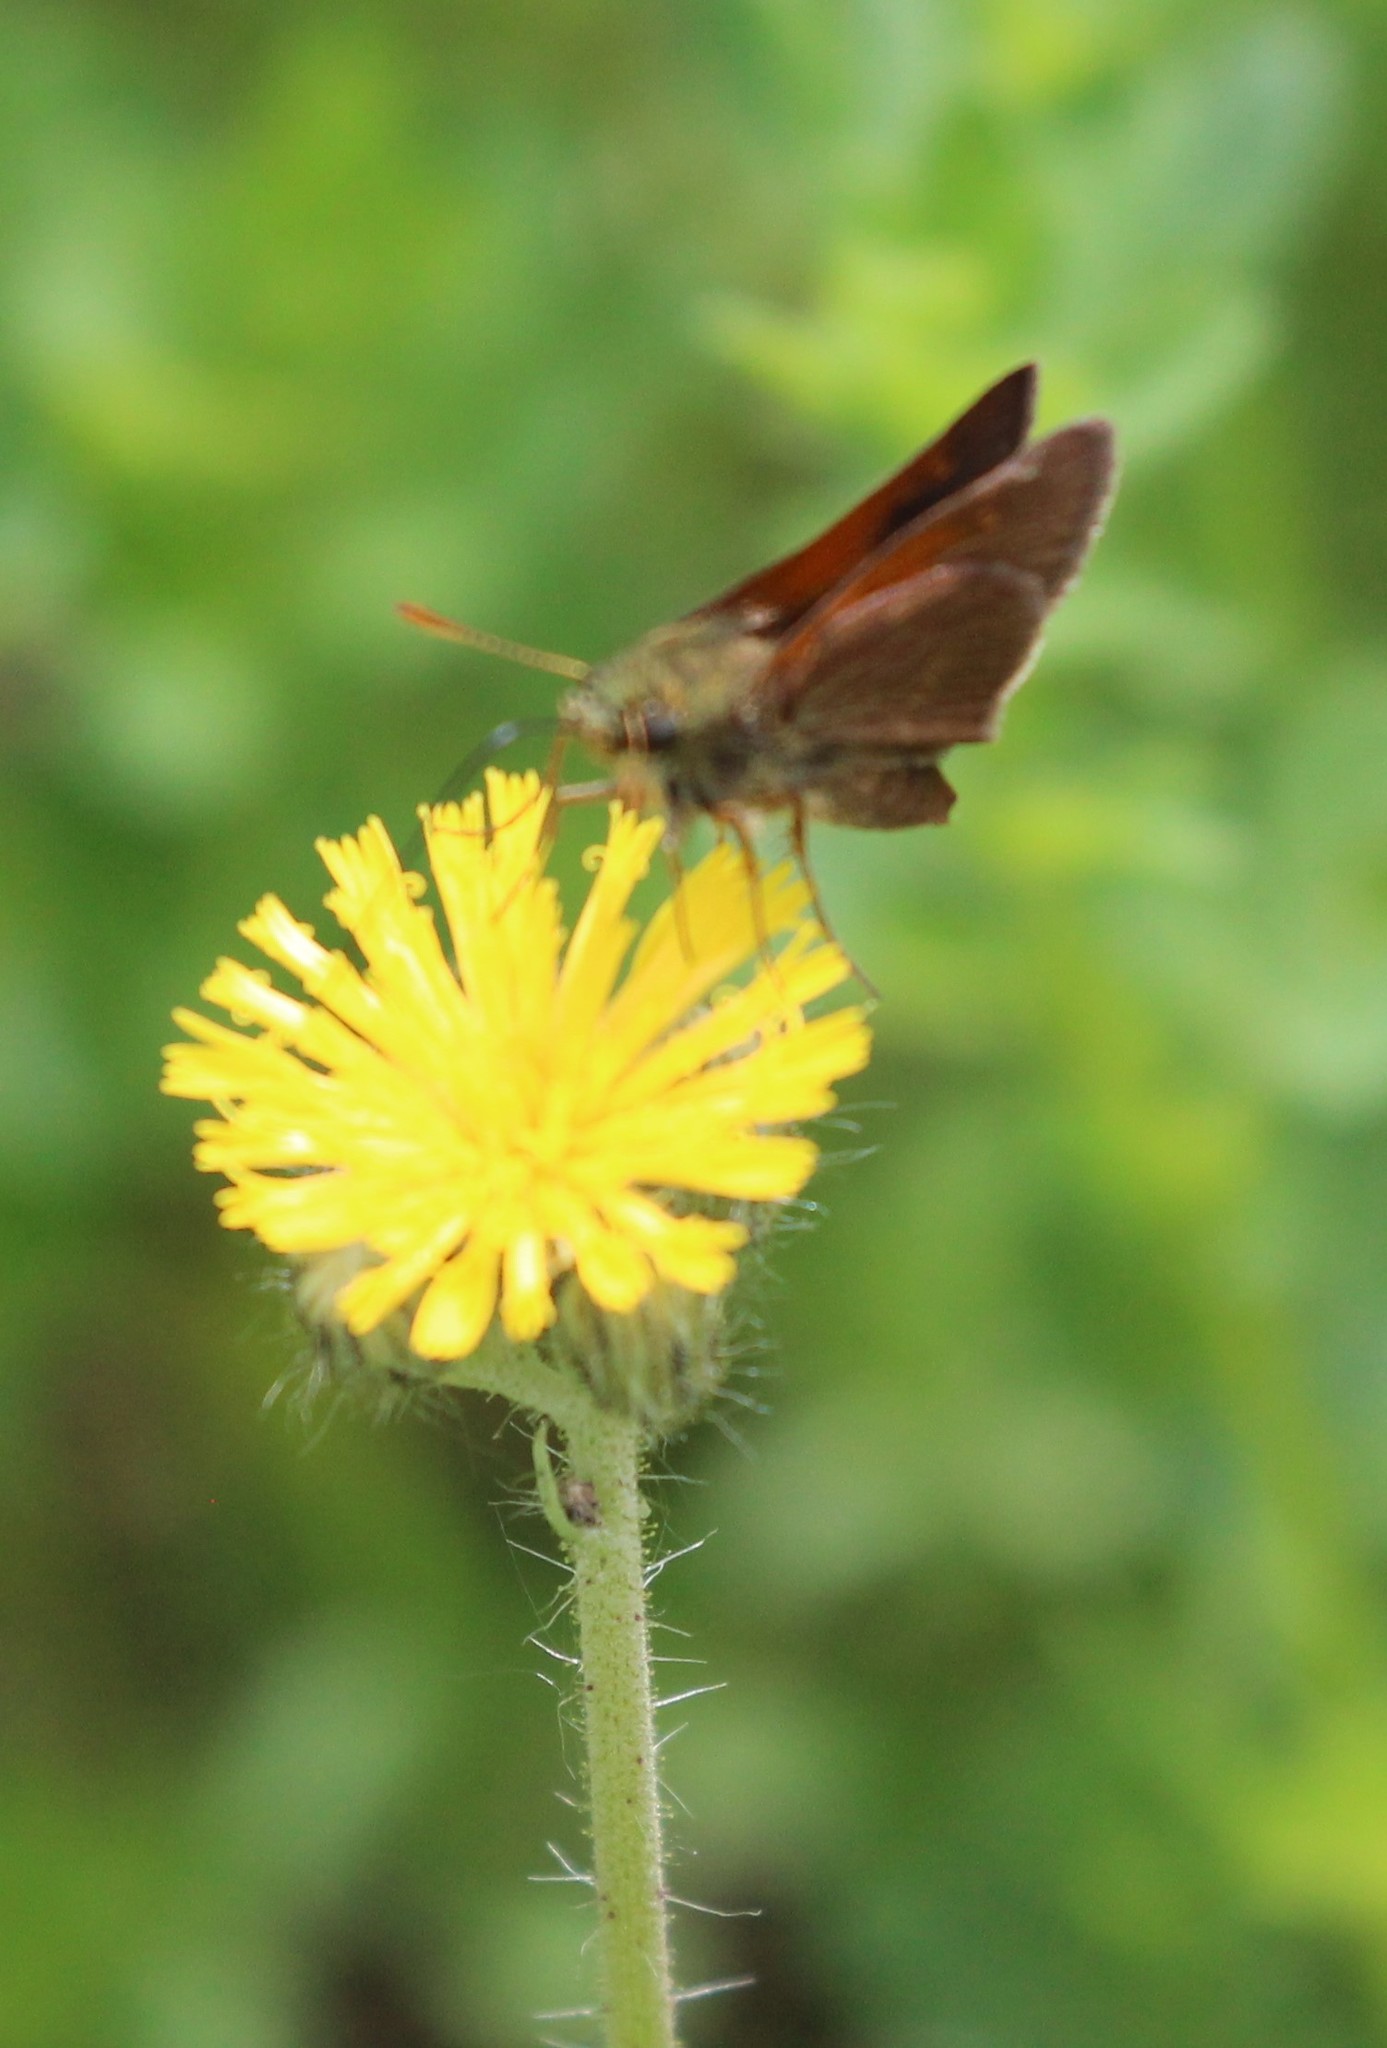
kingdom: Animalia
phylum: Arthropoda
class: Insecta
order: Lepidoptera
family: Hesperiidae
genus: Polites
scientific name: Polites themistocles
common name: Tawny-edged skipper
